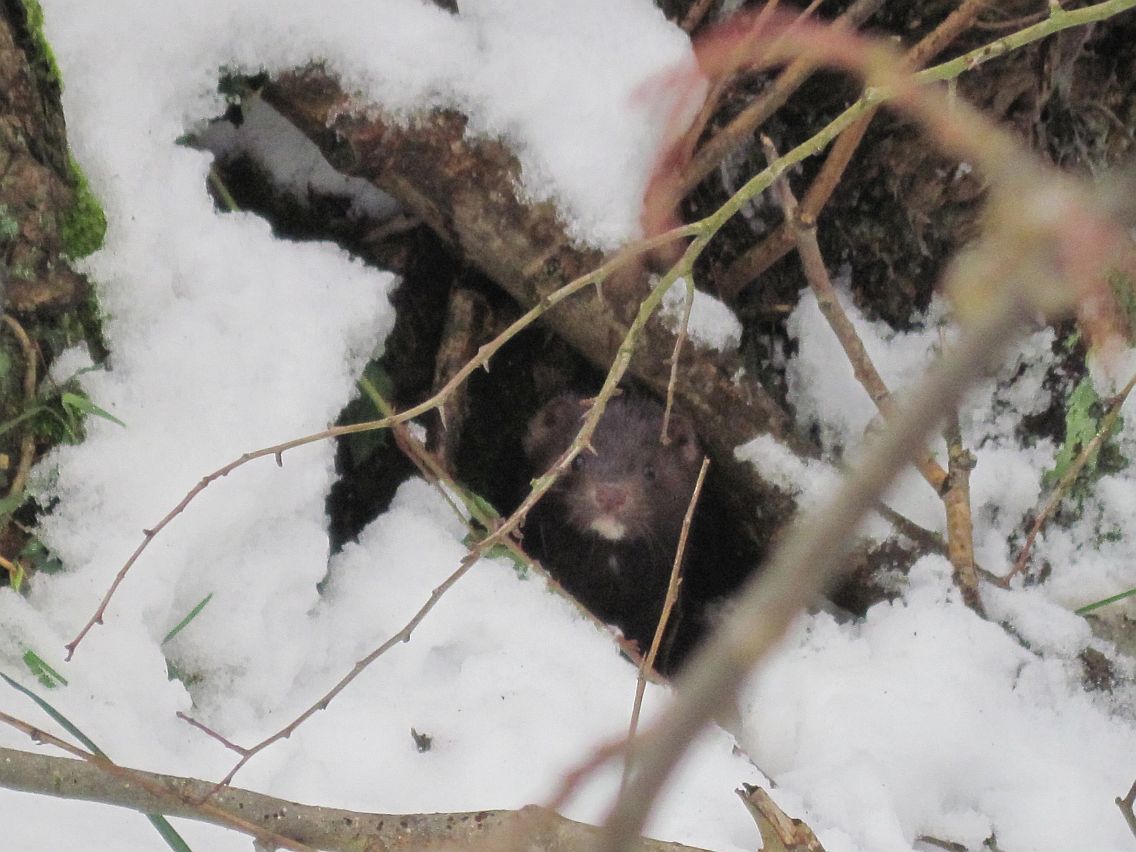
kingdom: Animalia
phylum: Chordata
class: Mammalia
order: Carnivora
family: Mustelidae
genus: Mustela
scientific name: Mustela
